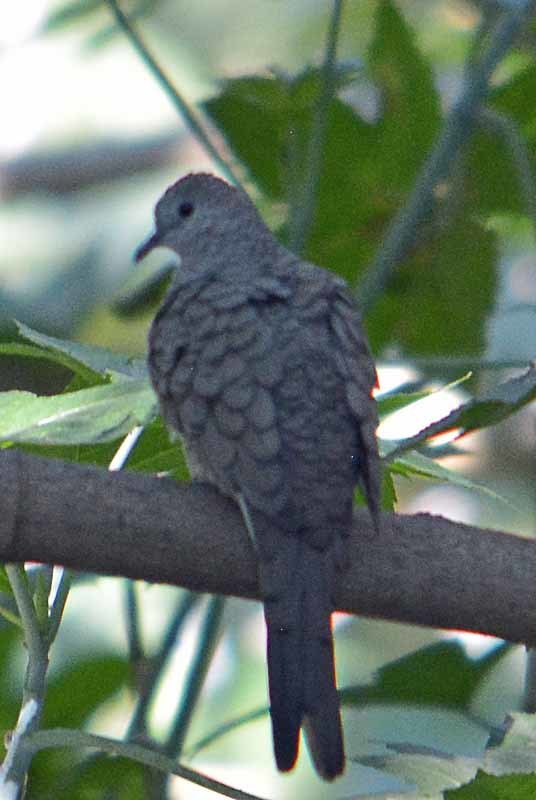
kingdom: Animalia
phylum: Chordata
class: Aves
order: Columbiformes
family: Columbidae
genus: Columbina
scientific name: Columbina inca
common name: Inca dove
